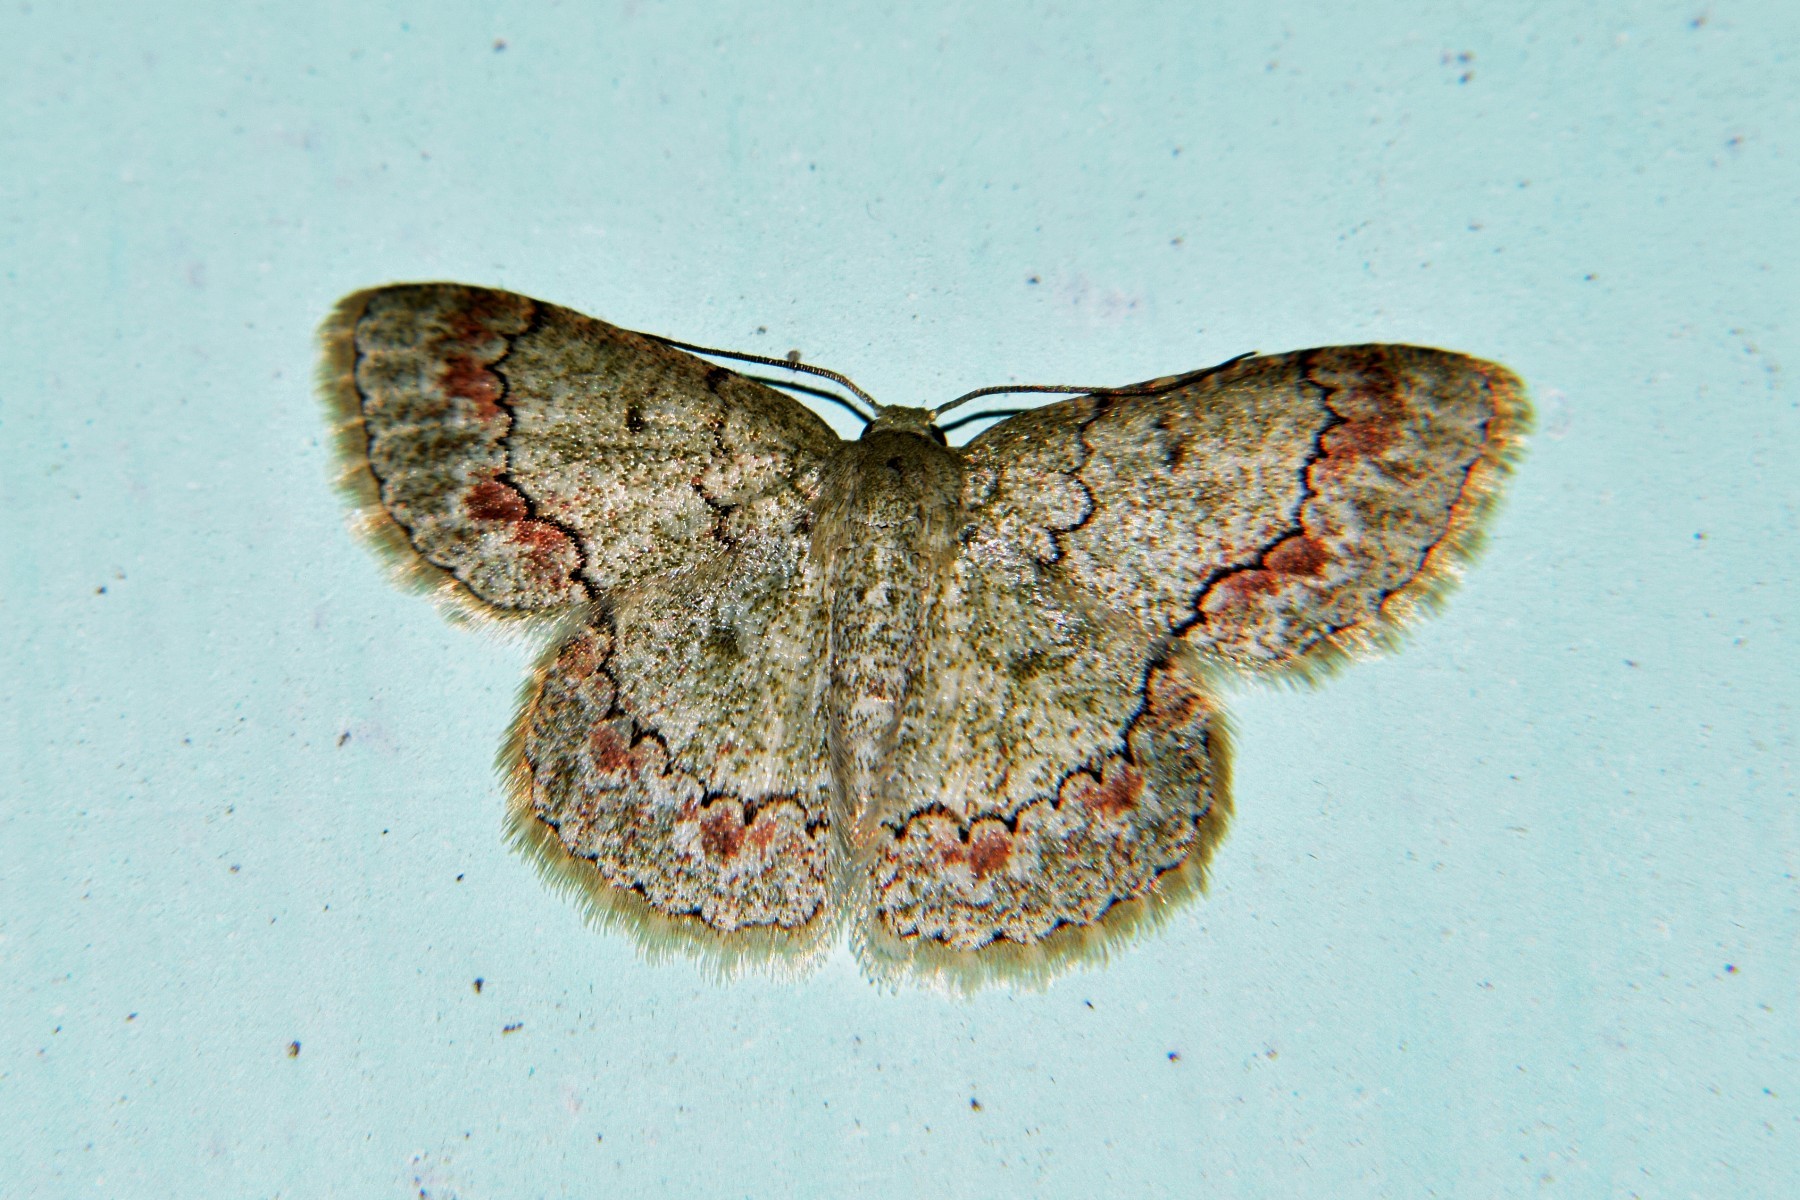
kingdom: Animalia
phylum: Arthropoda
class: Insecta
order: Lepidoptera
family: Geometridae
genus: Epipristis
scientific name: Epipristis minimaria
